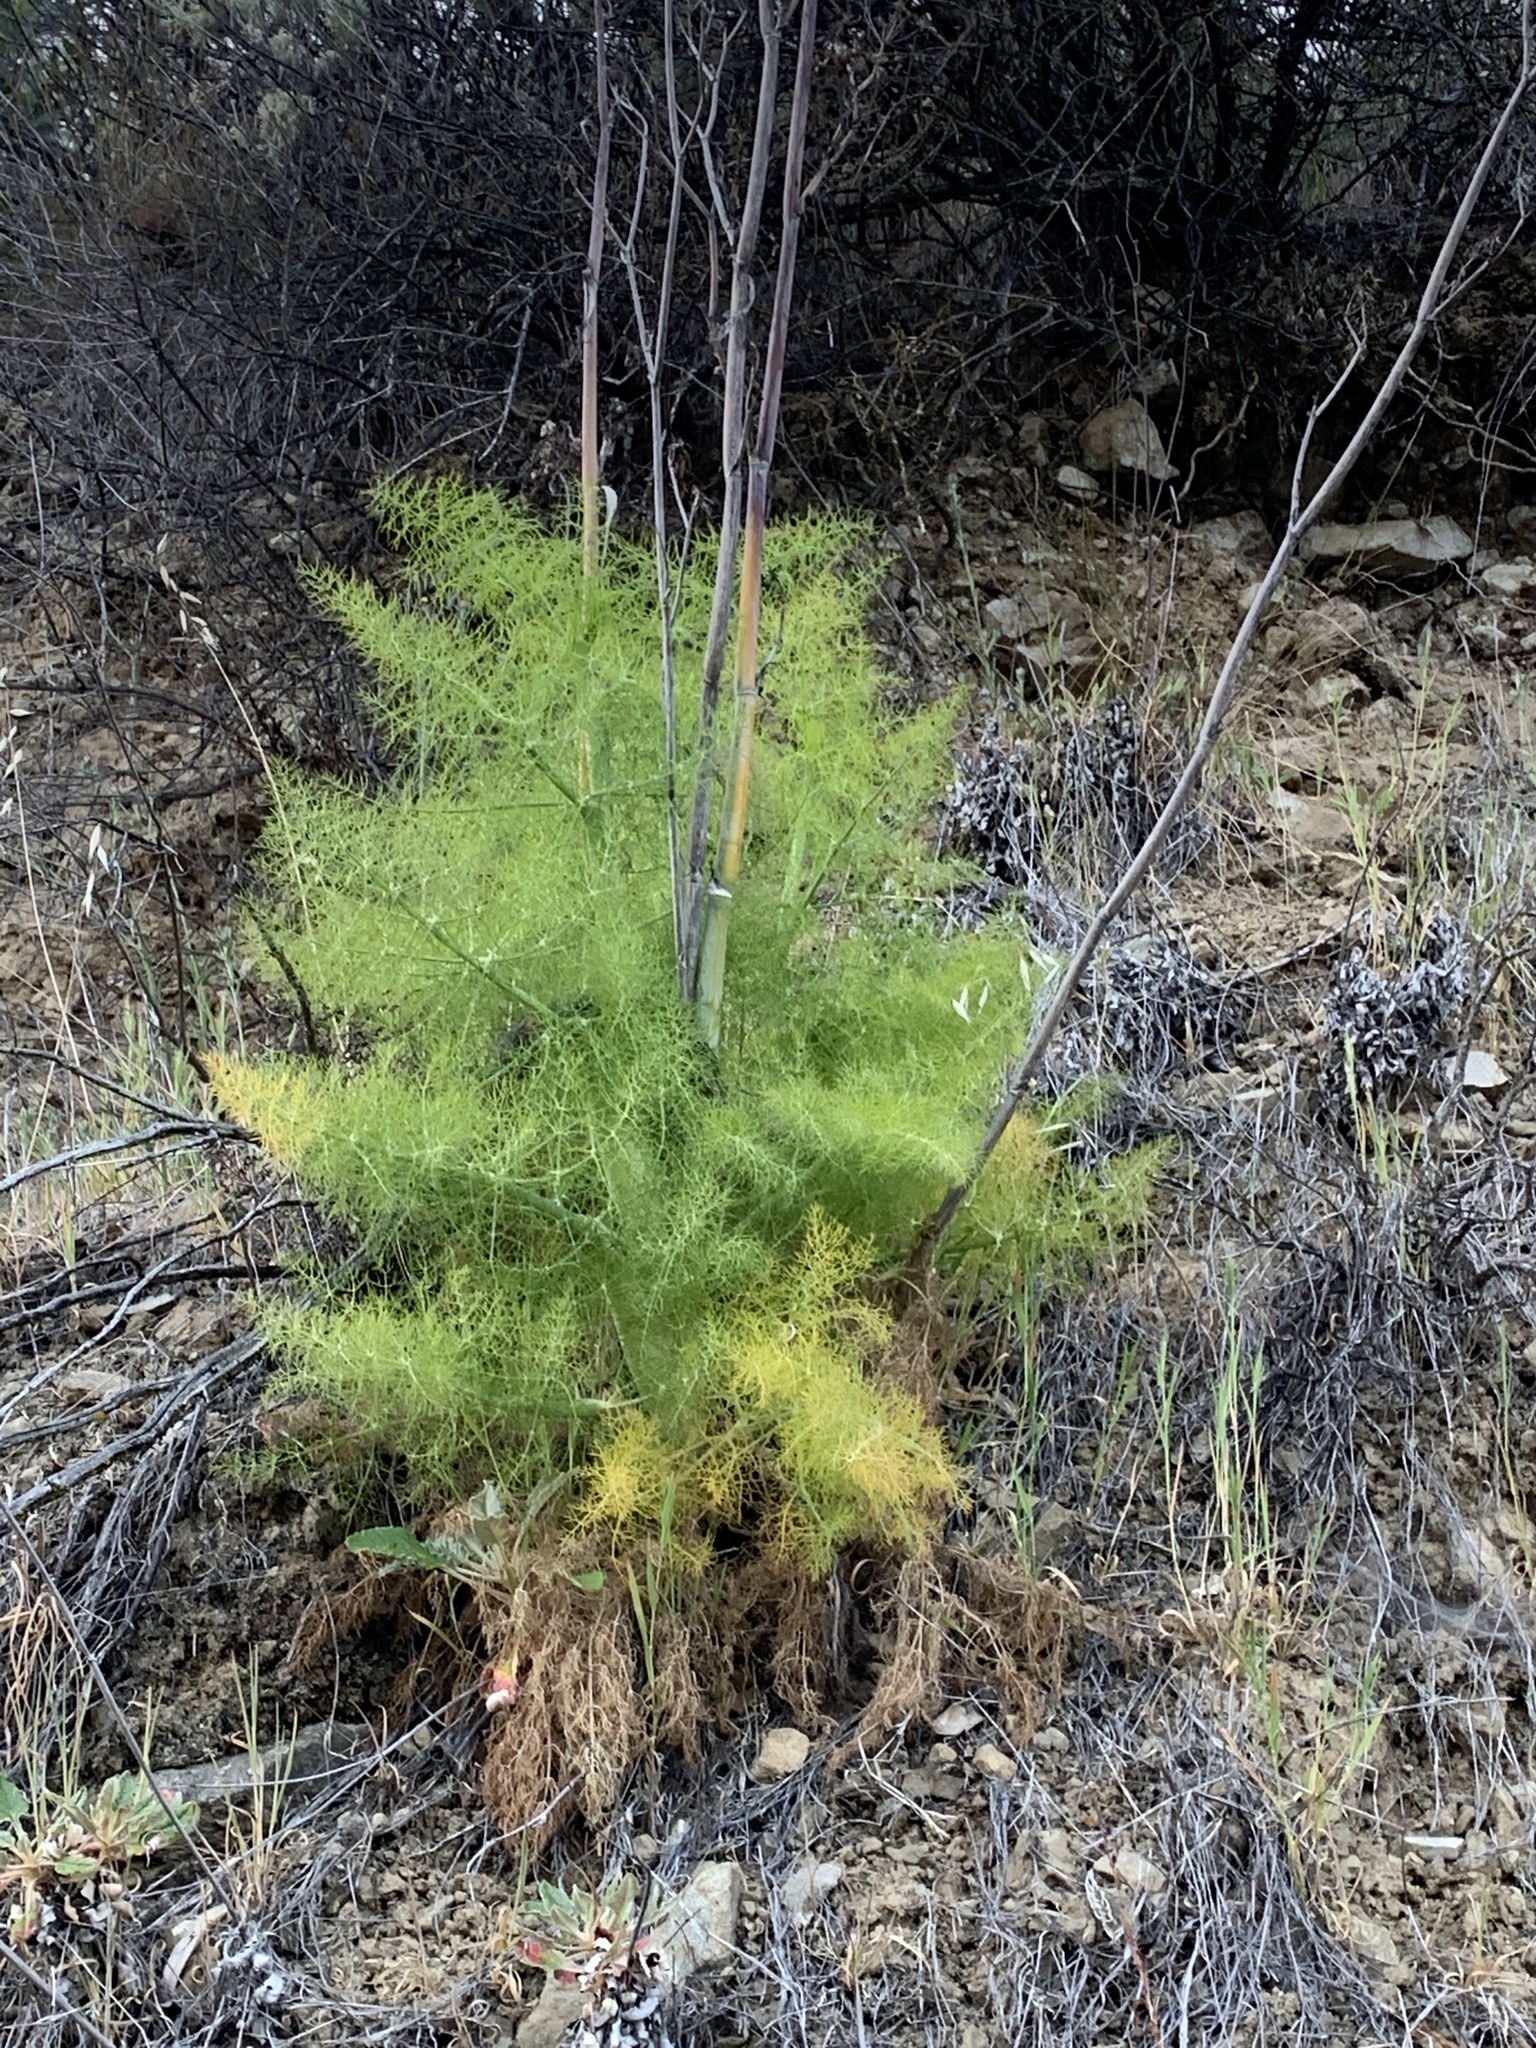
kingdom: Plantae
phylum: Tracheophyta
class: Magnoliopsida
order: Apiales
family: Apiaceae
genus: Foeniculum
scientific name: Foeniculum vulgare
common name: Fennel
